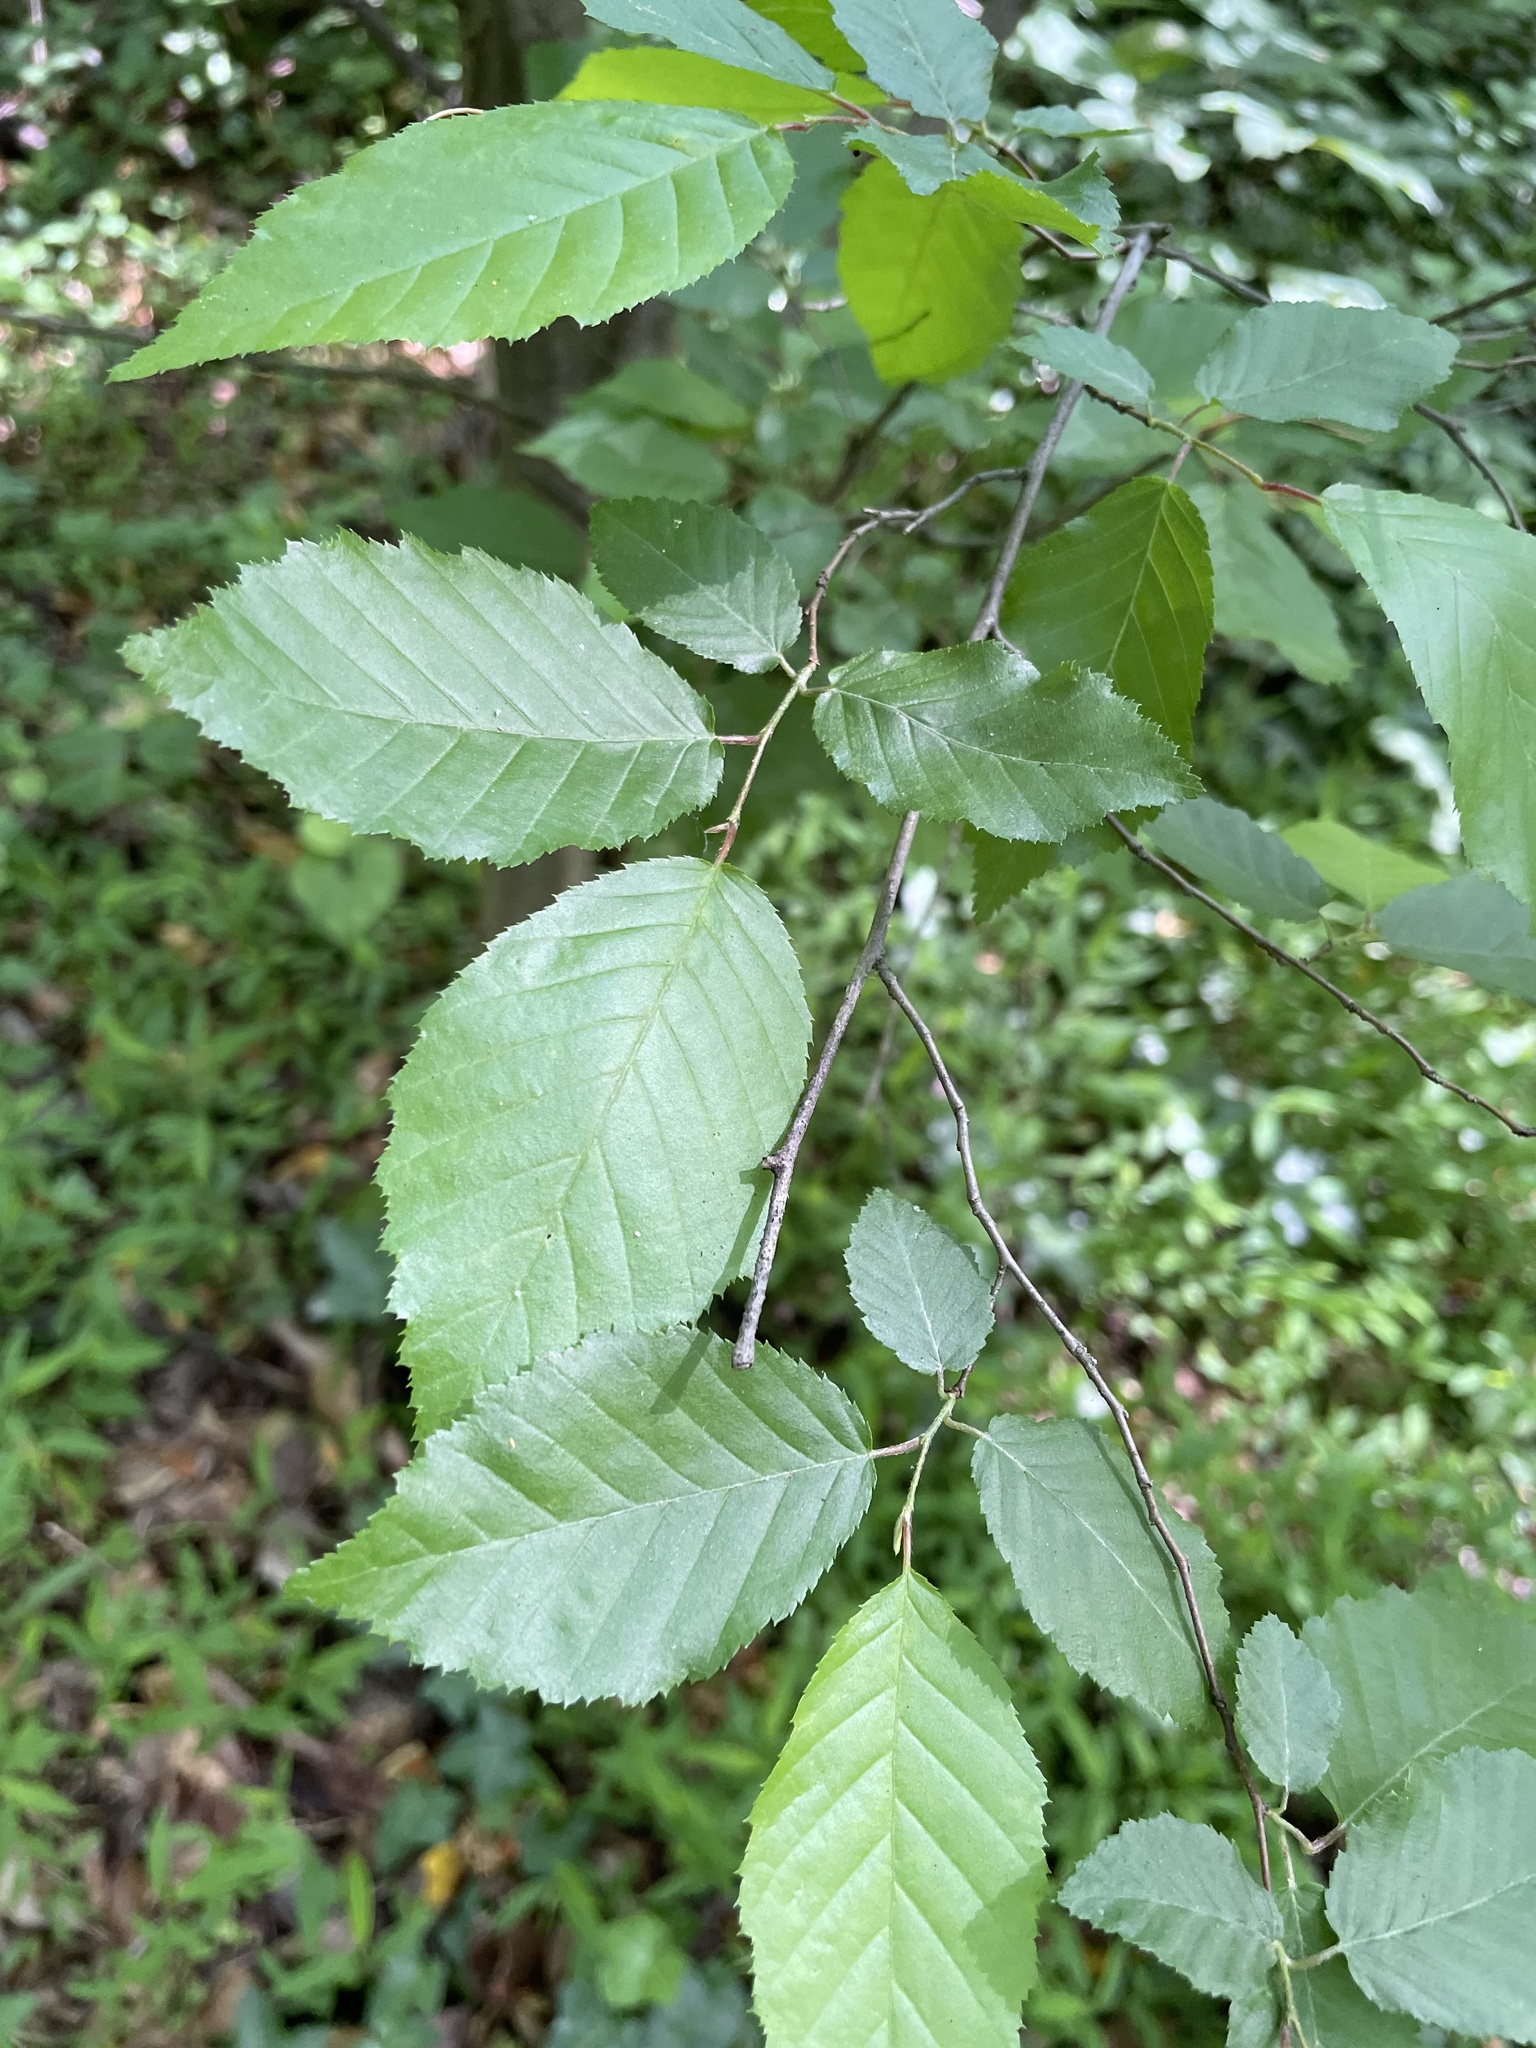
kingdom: Plantae
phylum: Tracheophyta
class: Magnoliopsida
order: Fagales
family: Betulaceae
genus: Carpinus
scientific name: Carpinus caroliniana
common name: American hornbeam
